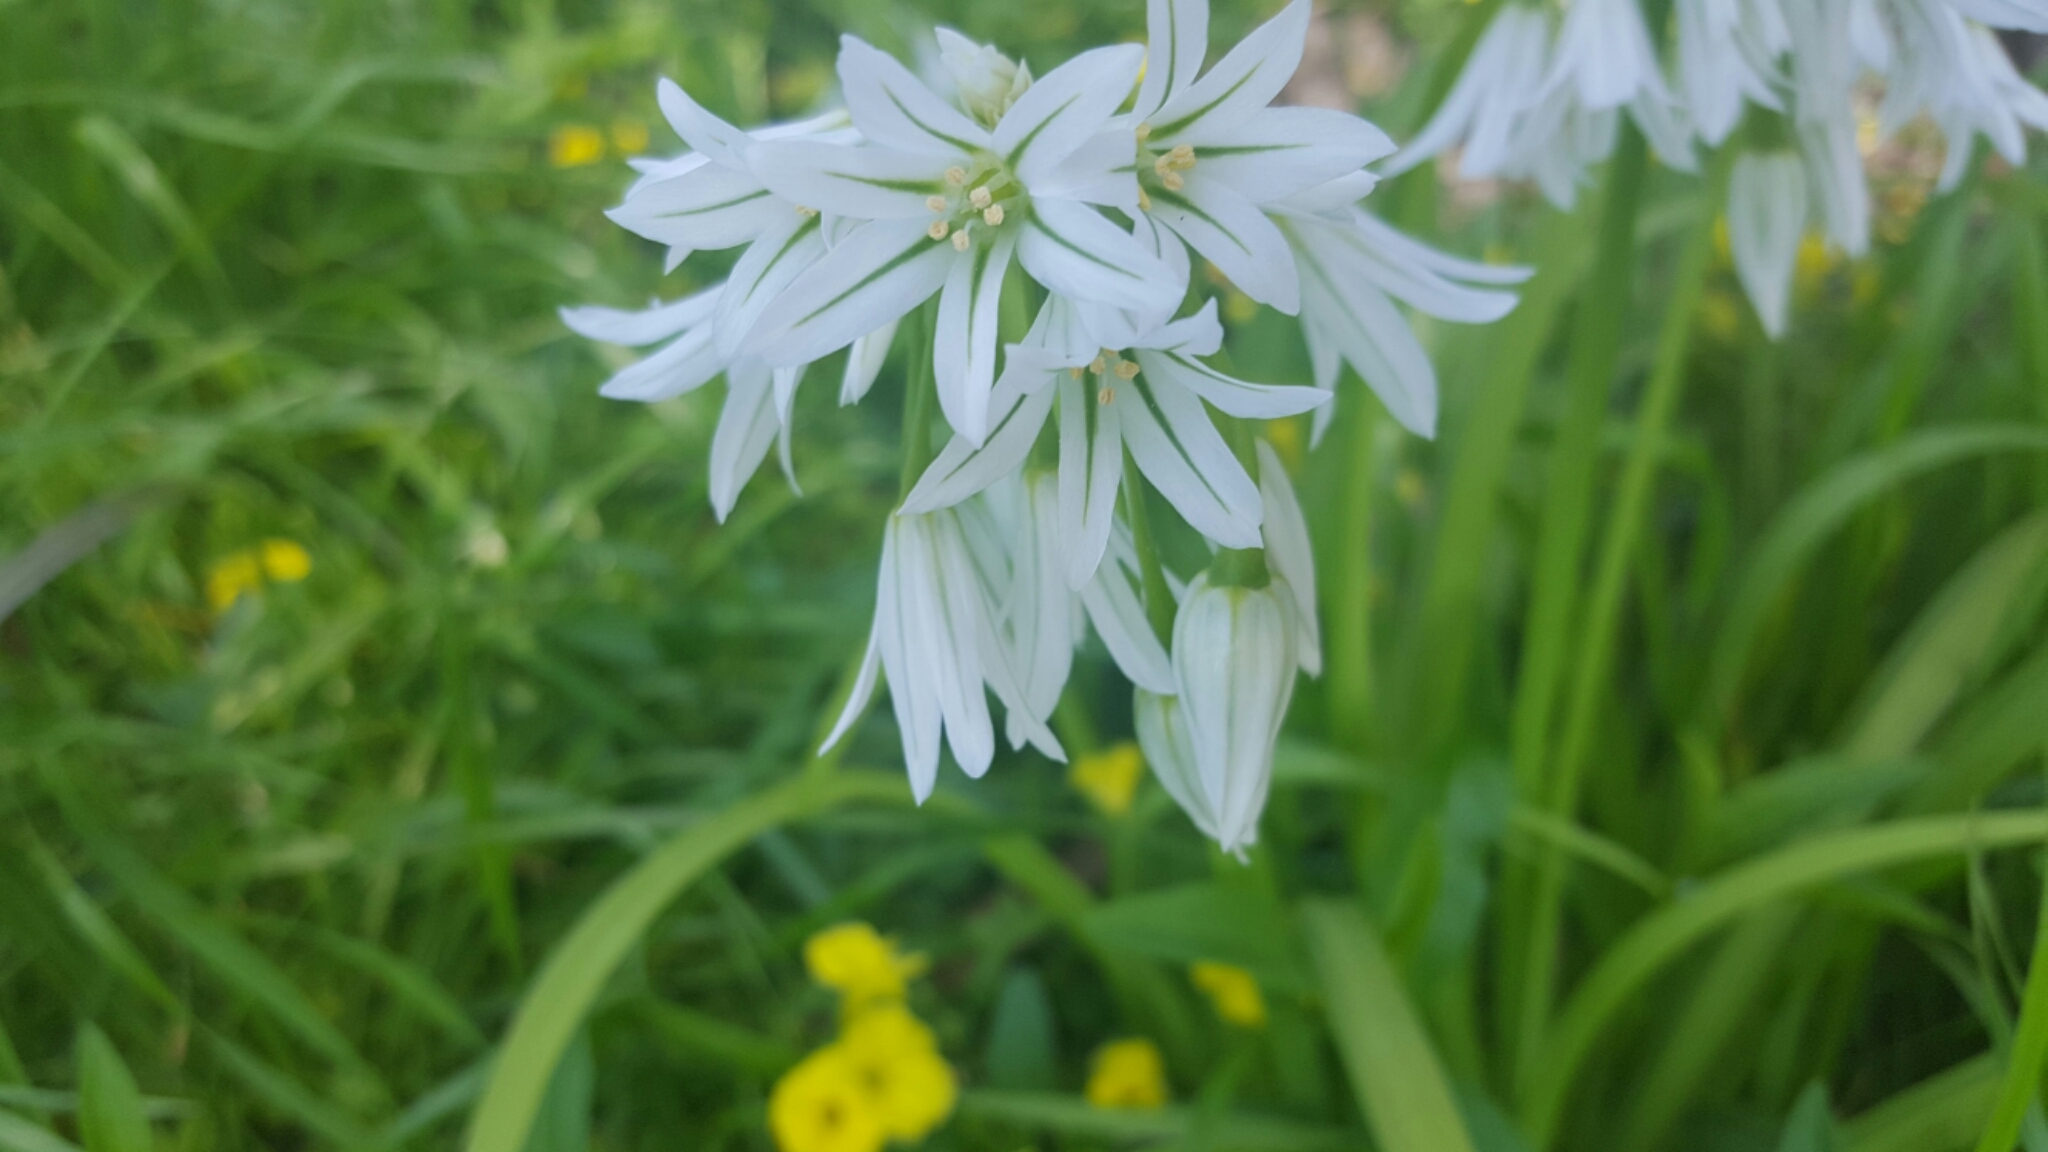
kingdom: Plantae
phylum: Tracheophyta
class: Liliopsida
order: Asparagales
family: Amaryllidaceae
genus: Allium
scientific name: Allium triquetrum
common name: Three-cornered garlic
